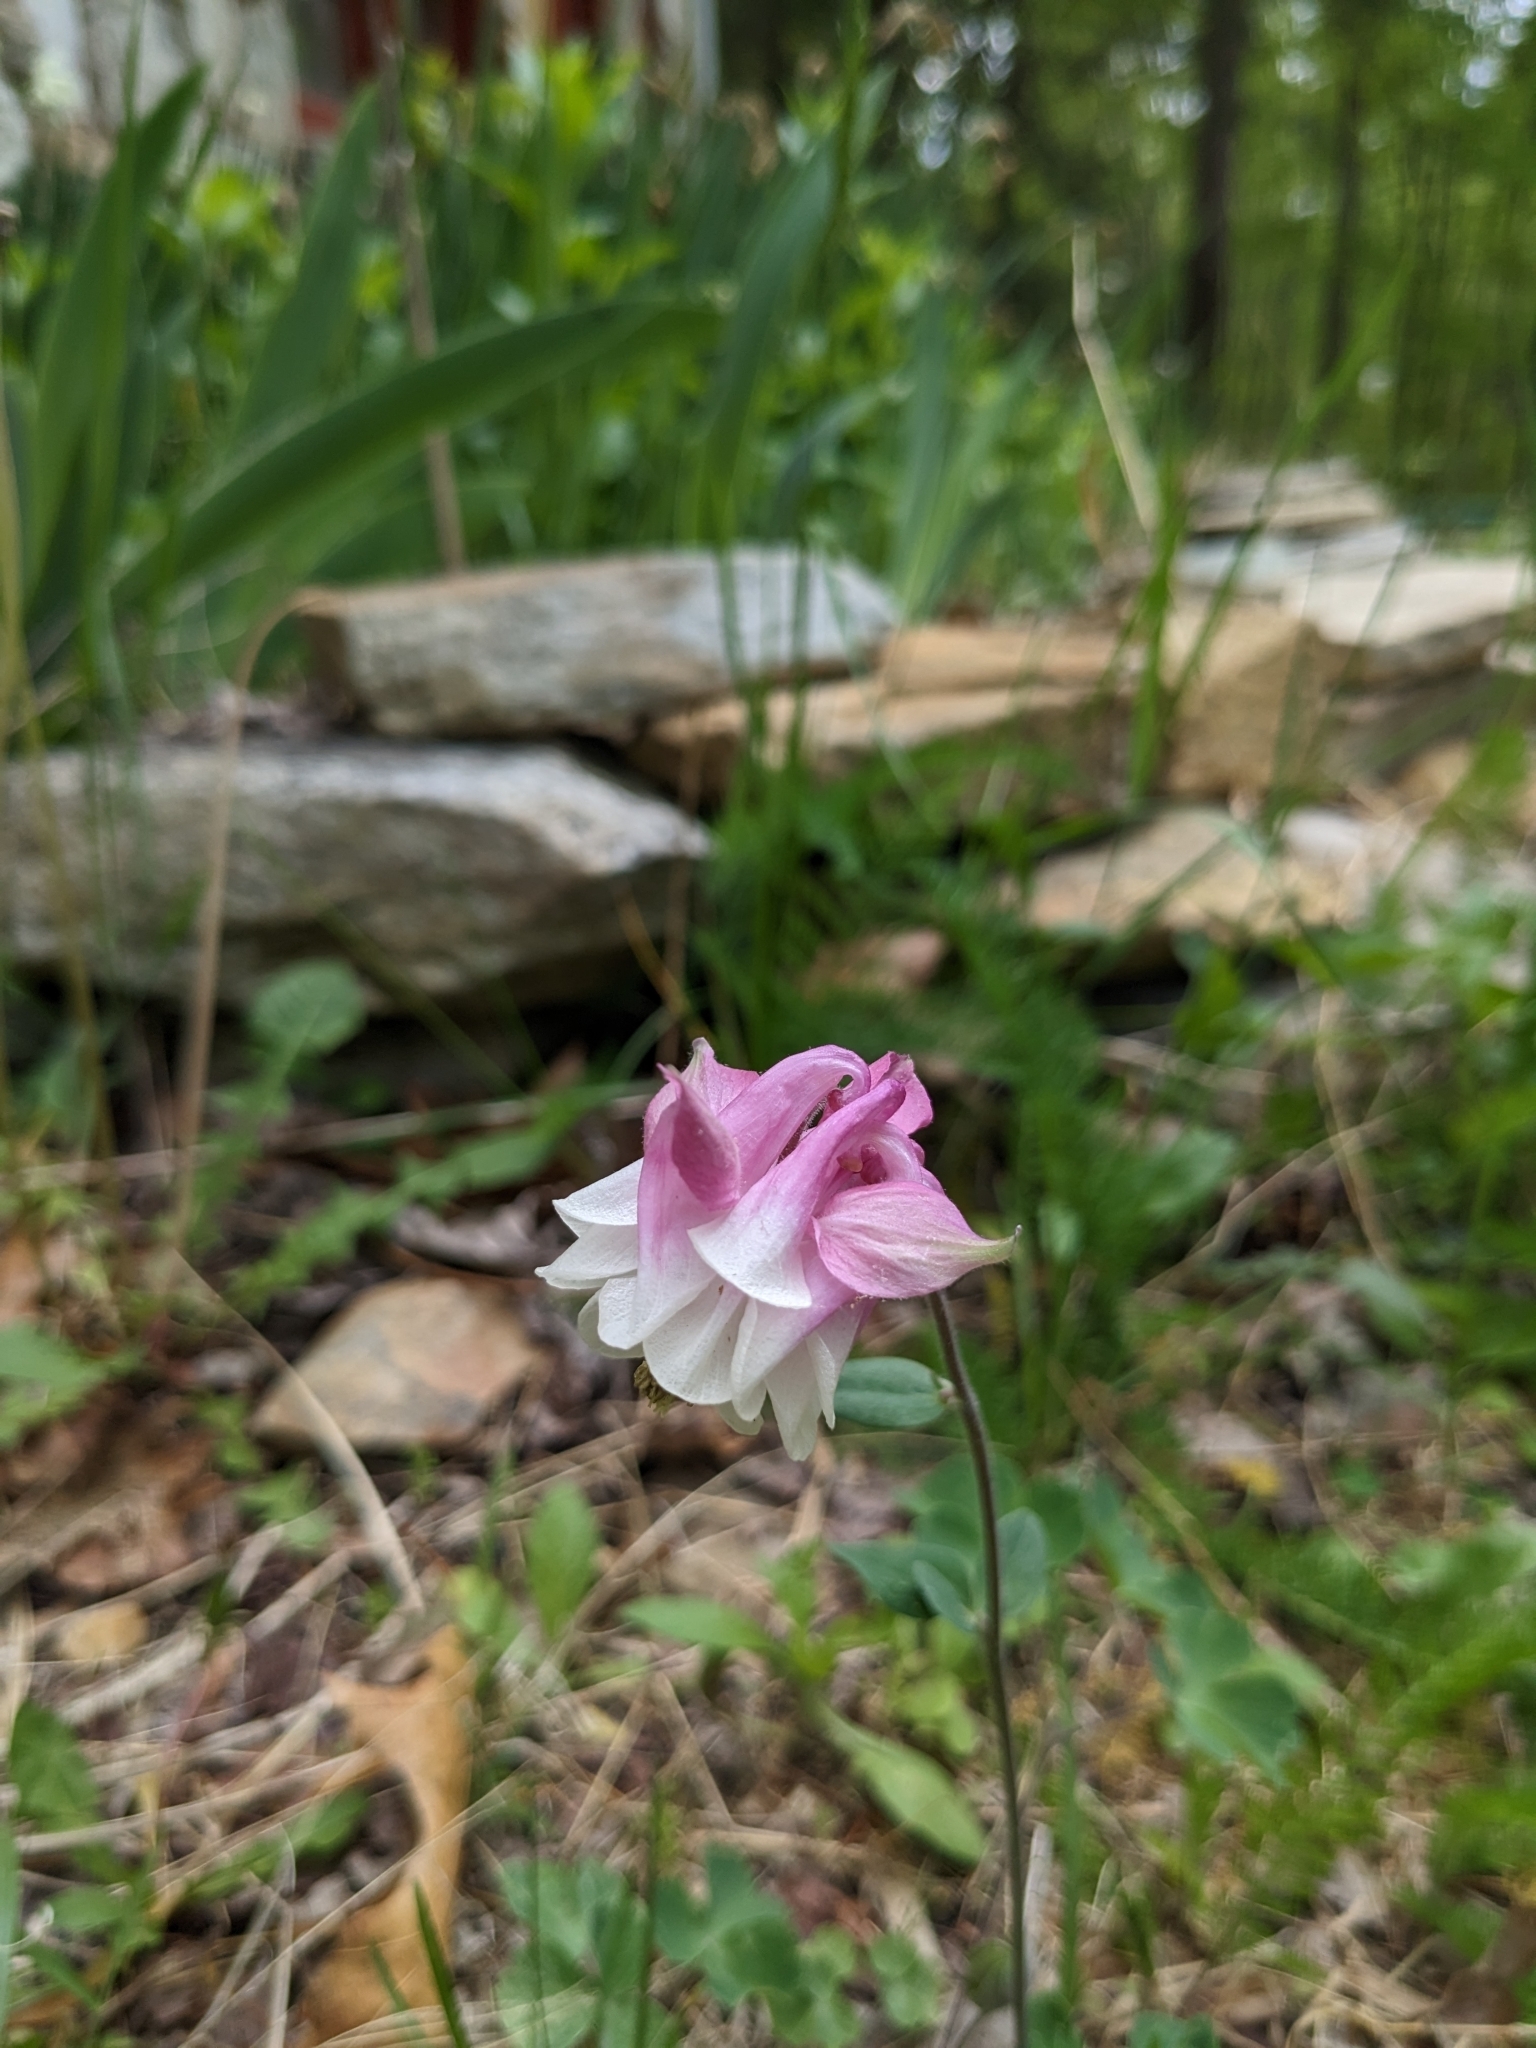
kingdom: Plantae
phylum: Tracheophyta
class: Magnoliopsida
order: Ranunculales
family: Ranunculaceae
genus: Aquilegia
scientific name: Aquilegia vulgaris
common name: Columbine
